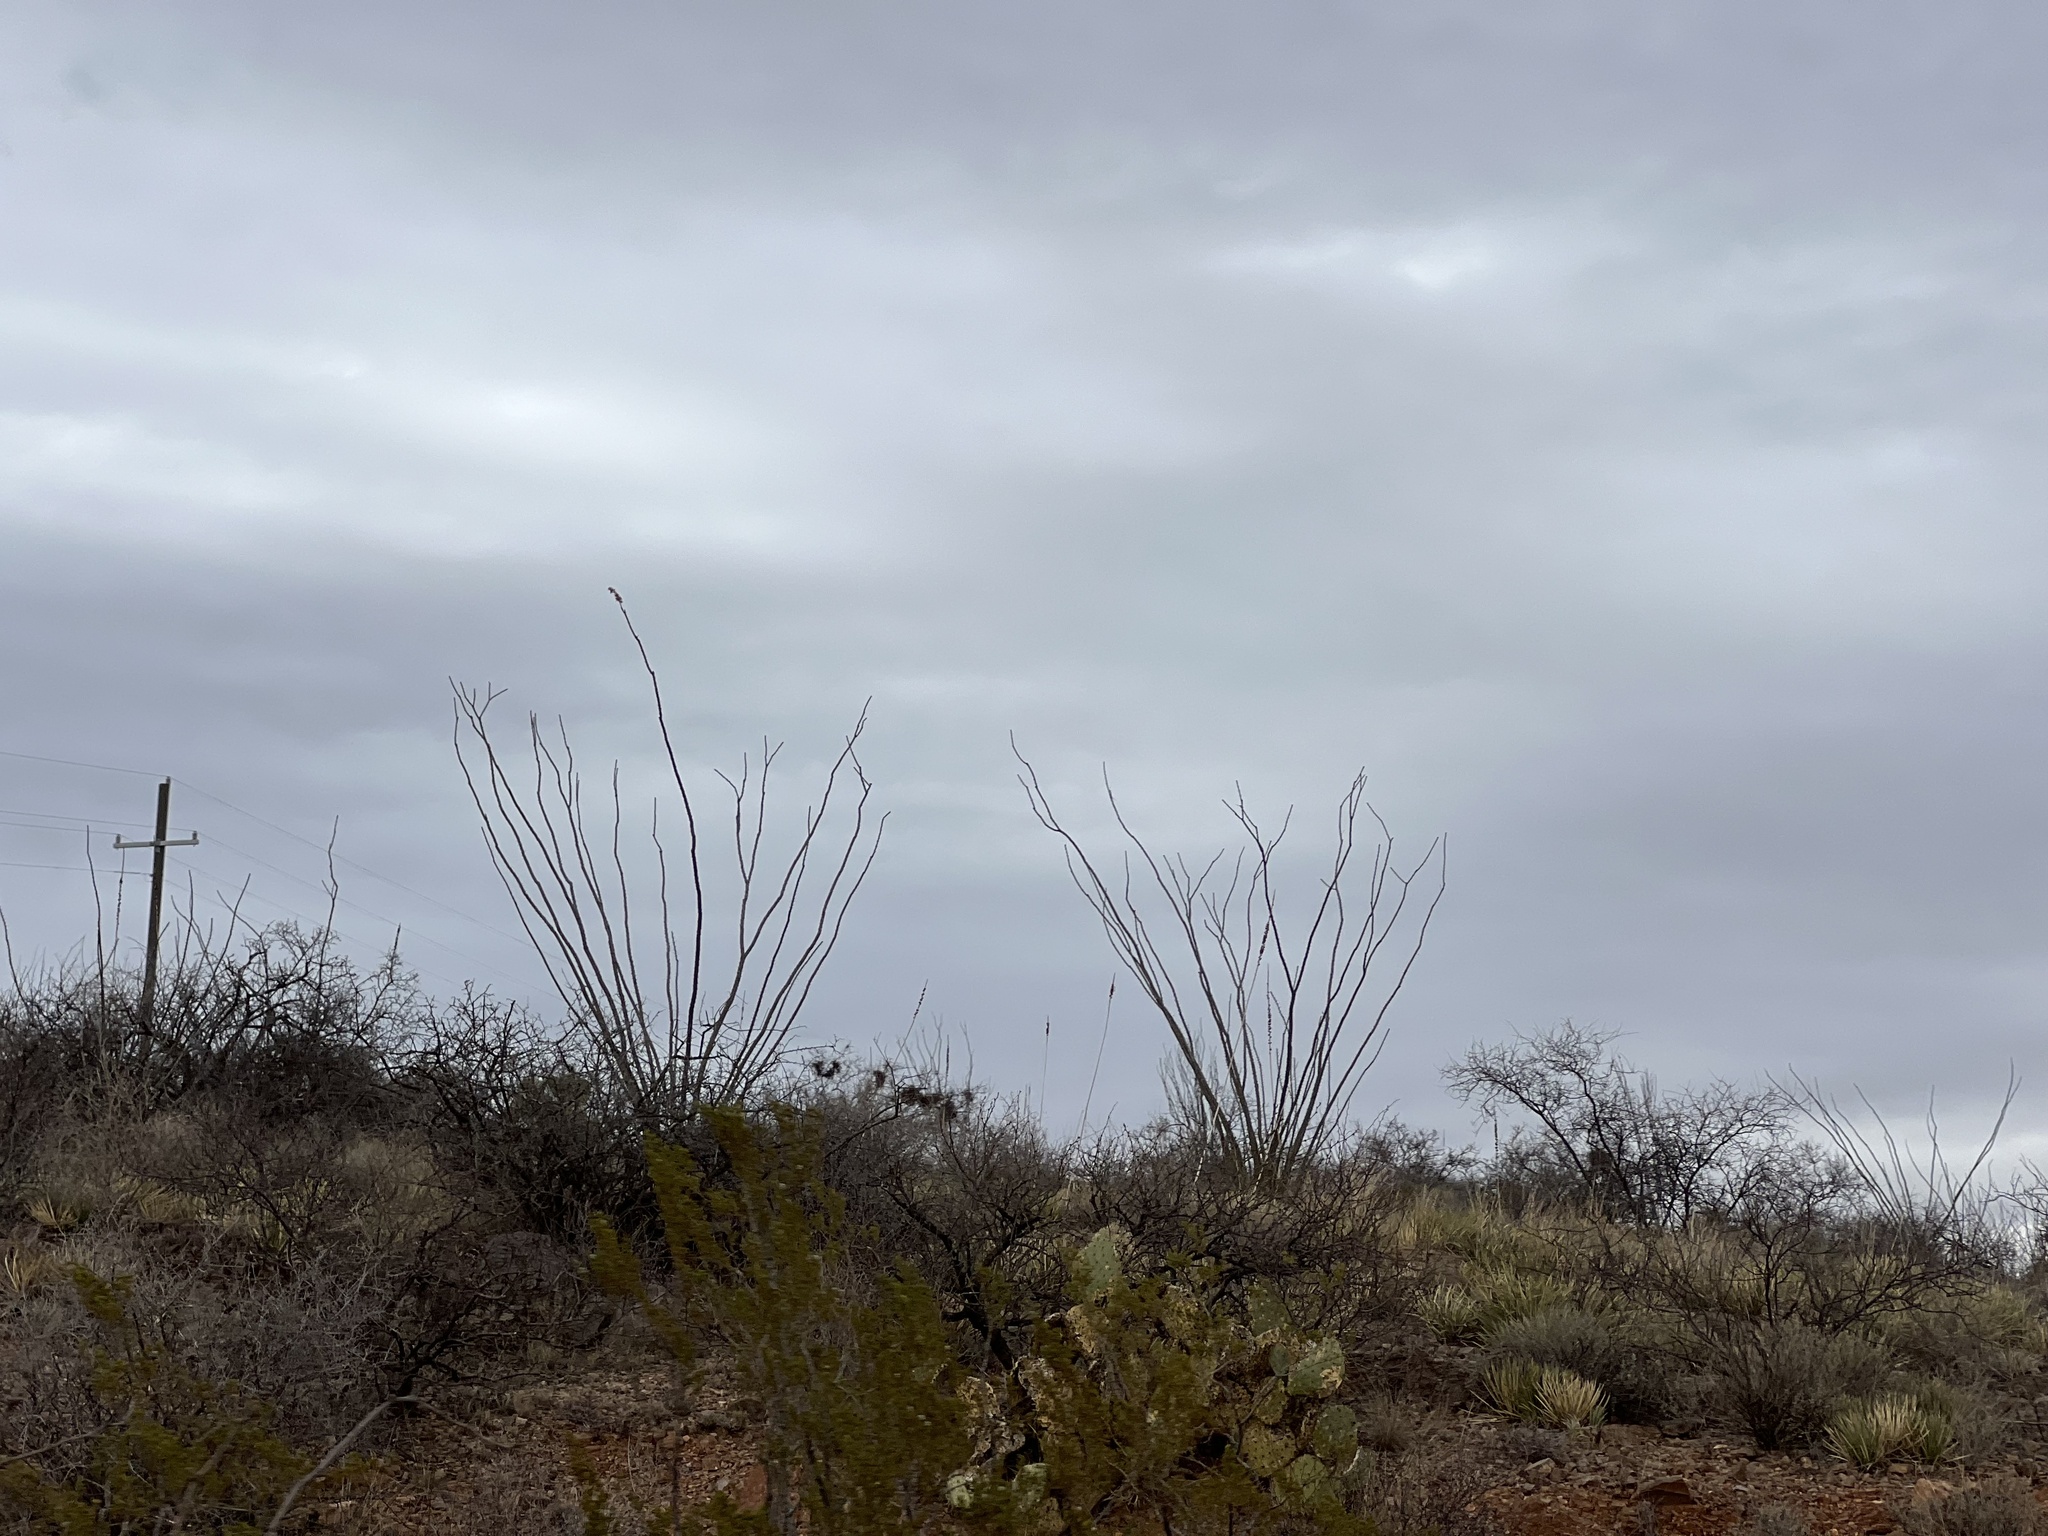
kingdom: Plantae
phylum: Tracheophyta
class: Magnoliopsida
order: Ericales
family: Fouquieriaceae
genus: Fouquieria
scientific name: Fouquieria splendens
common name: Vine-cactus
